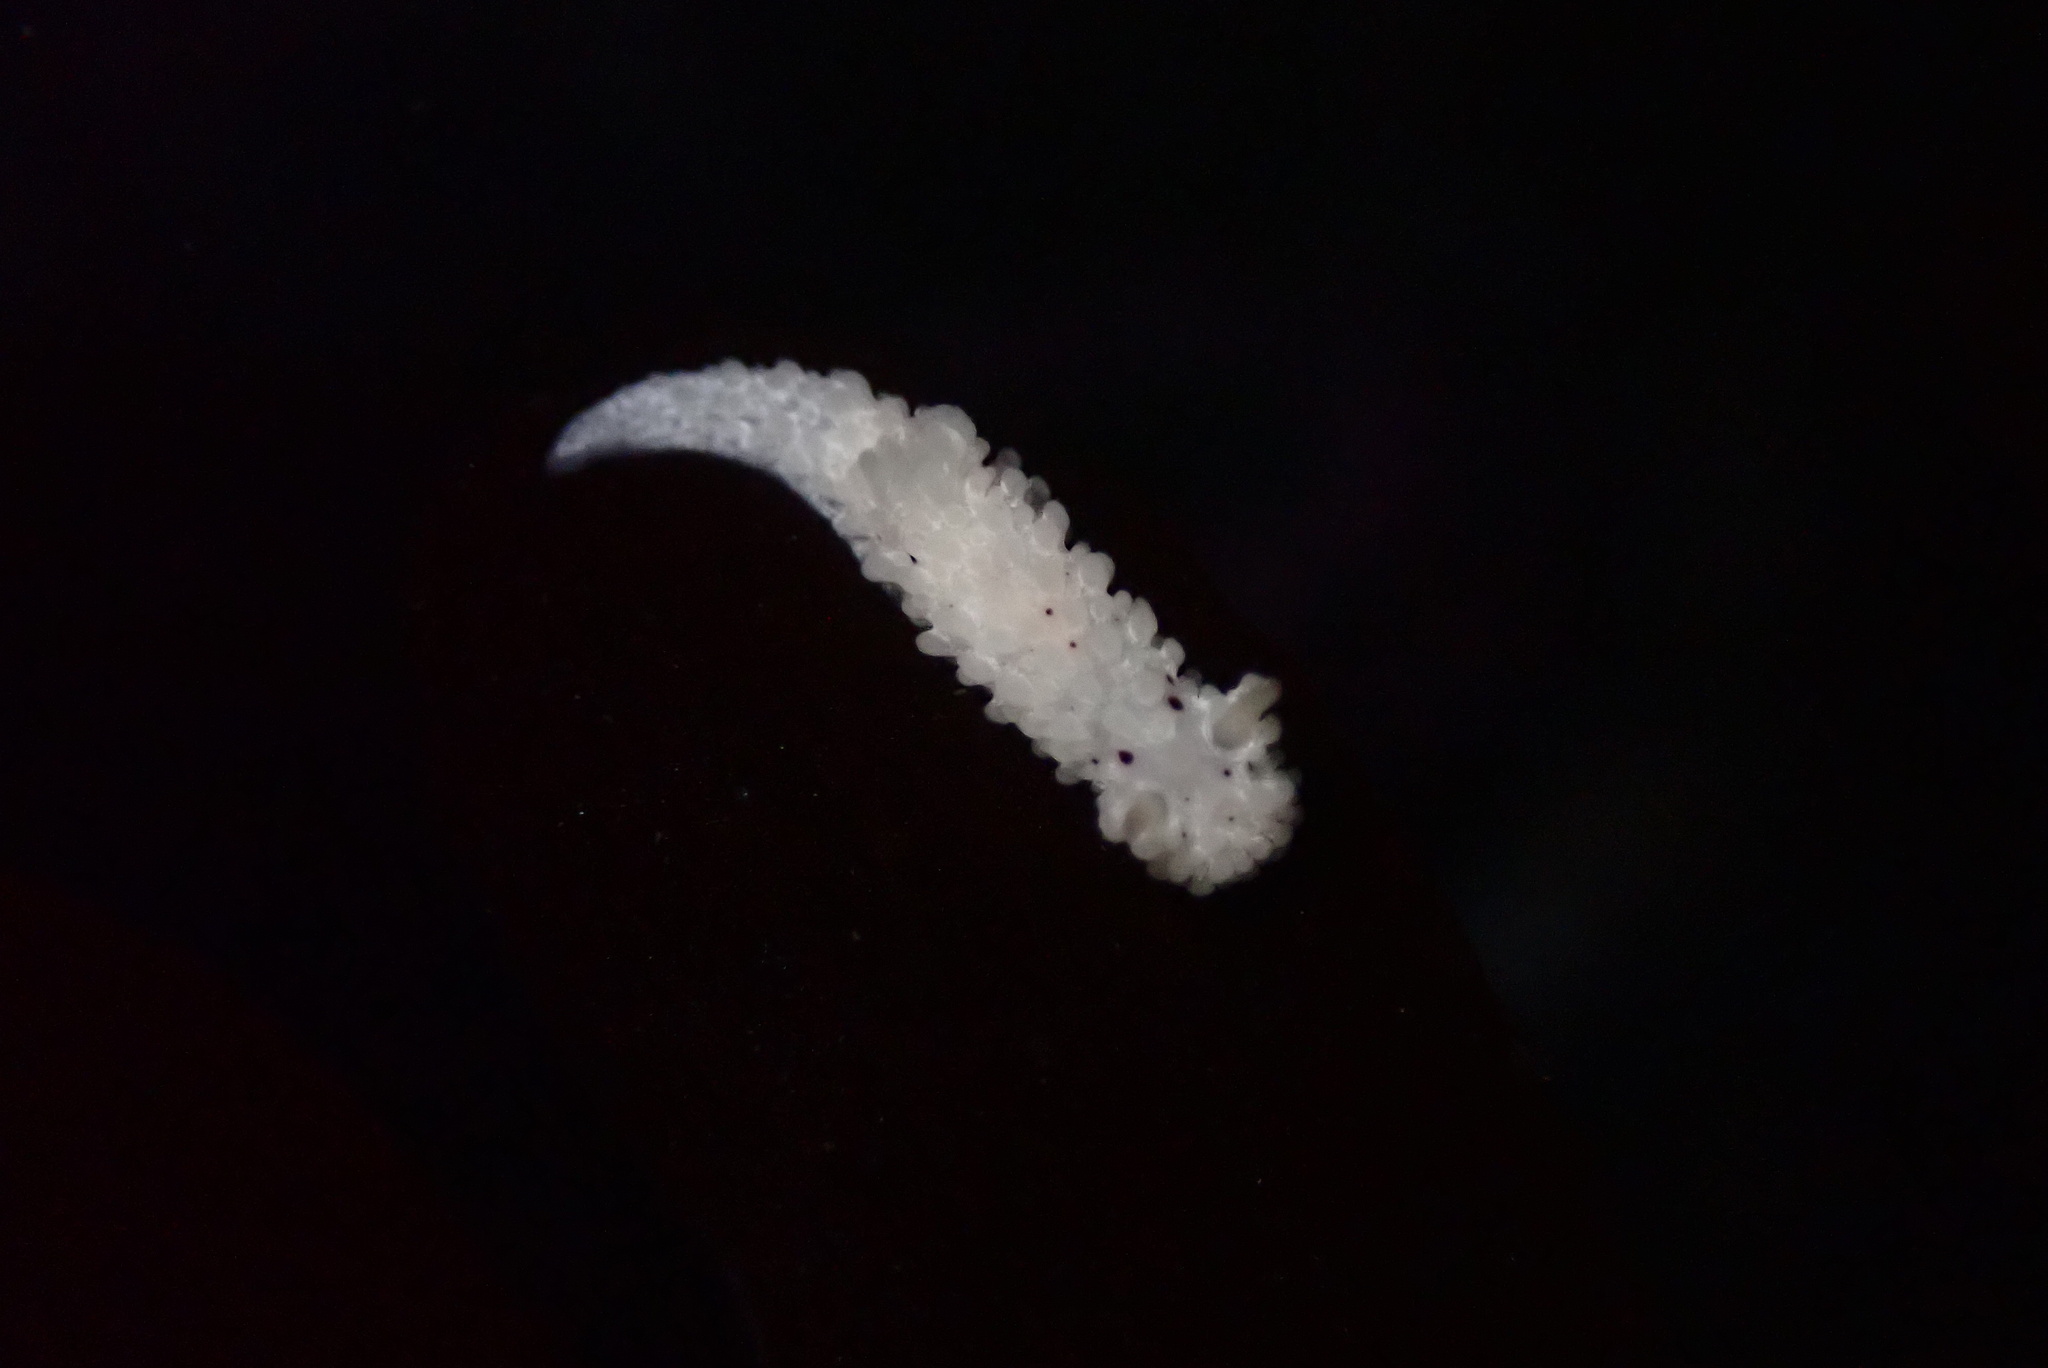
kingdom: Animalia
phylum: Mollusca
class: Gastropoda
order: Nudibranchia
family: Aegiridae
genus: Aegires
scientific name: Aegires albopunctatus
